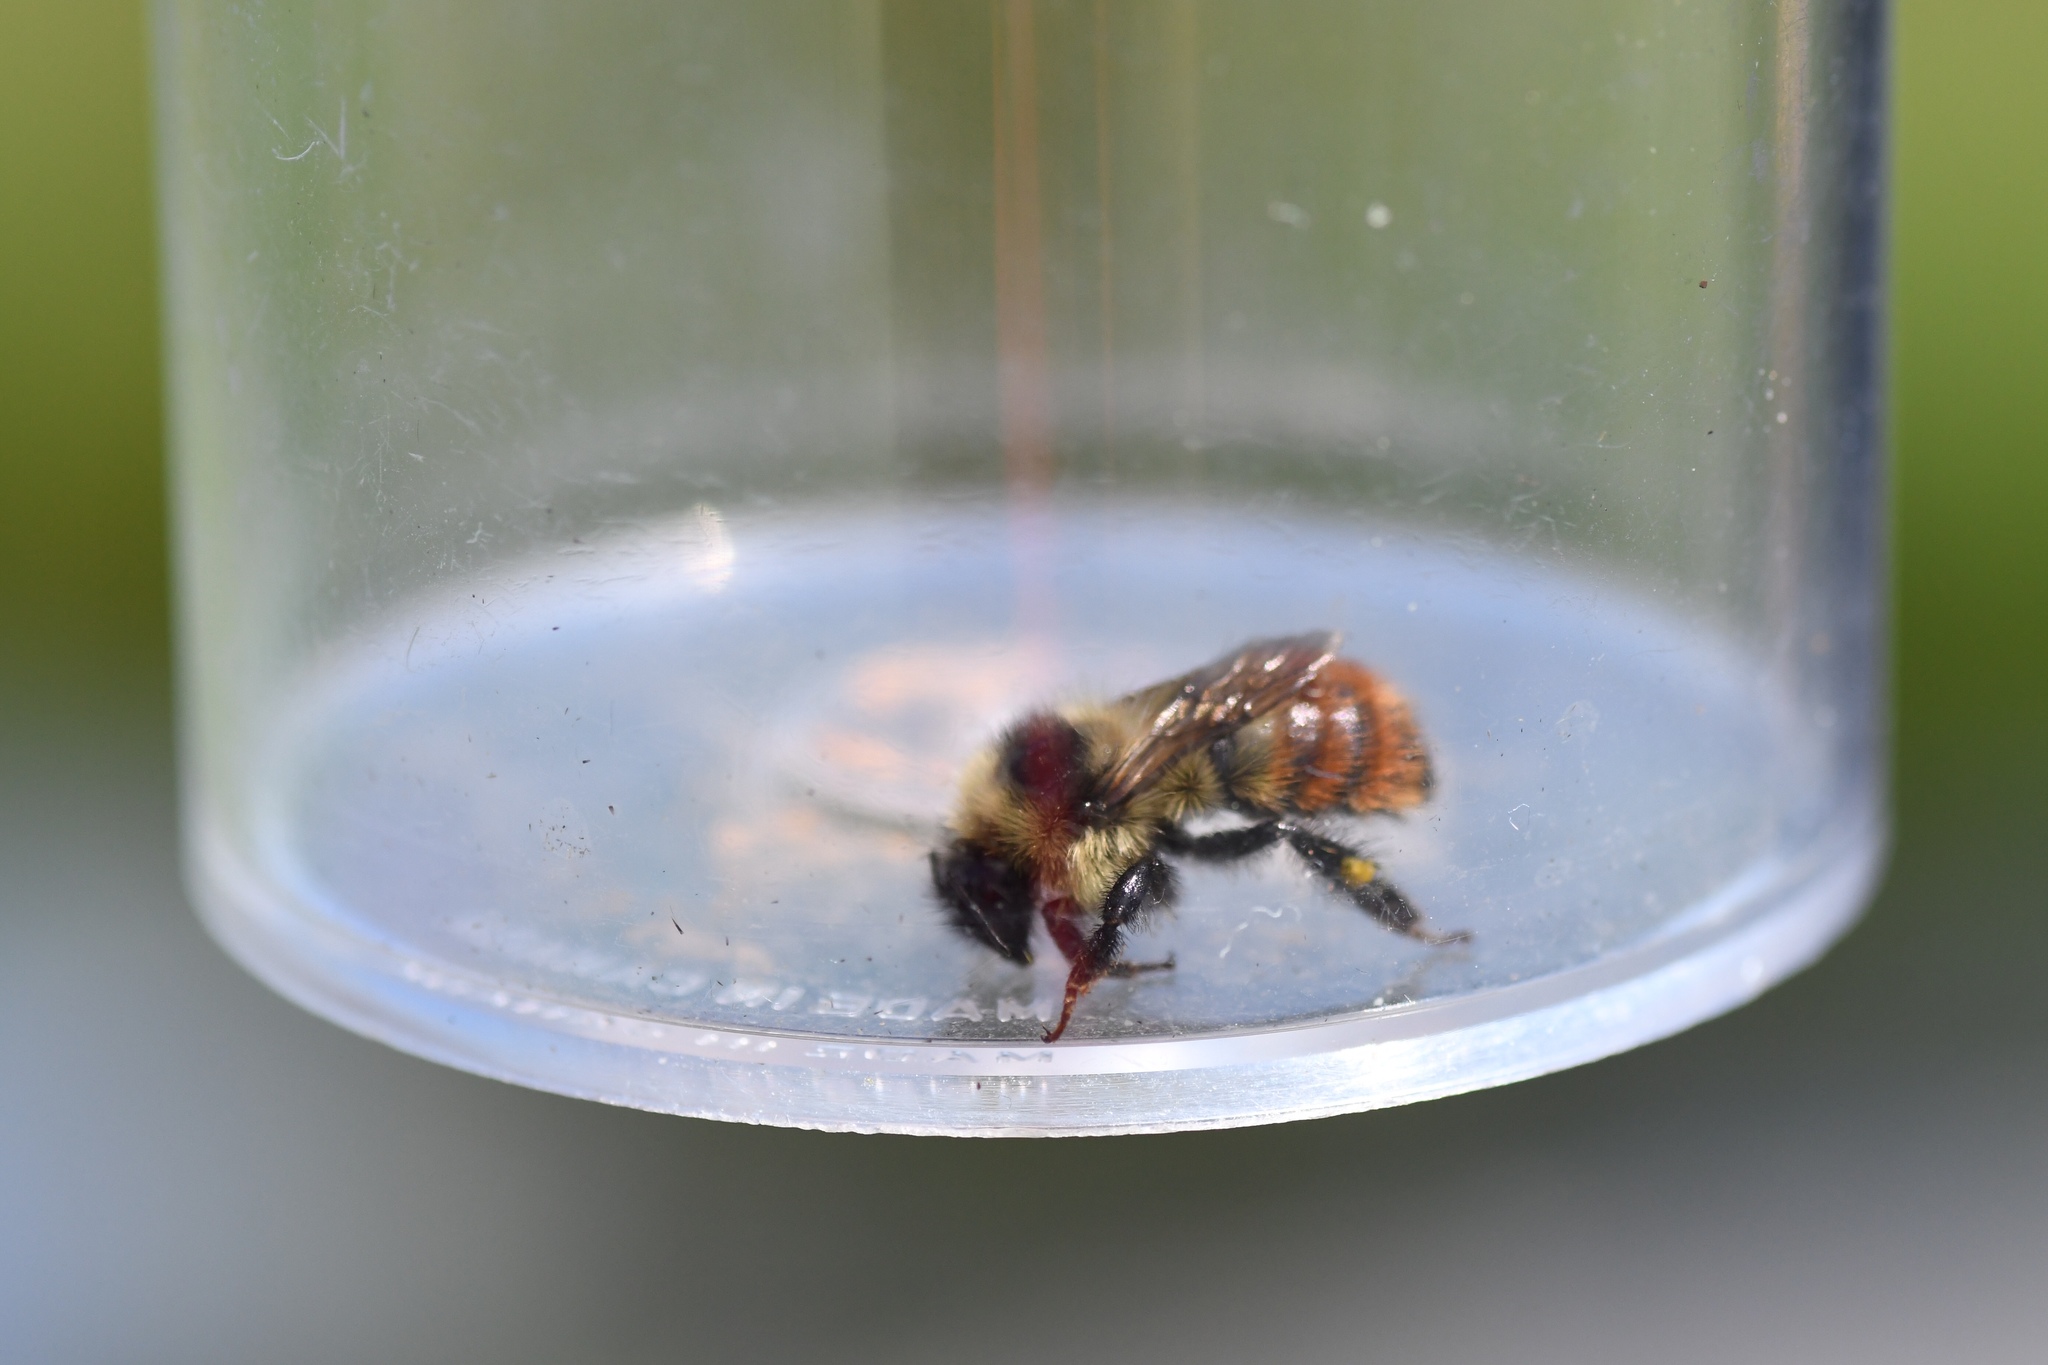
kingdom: Animalia
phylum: Arthropoda
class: Insecta
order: Hymenoptera
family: Apidae
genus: Bombus
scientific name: Bombus rufocinctus
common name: Red-belted bumble bee
